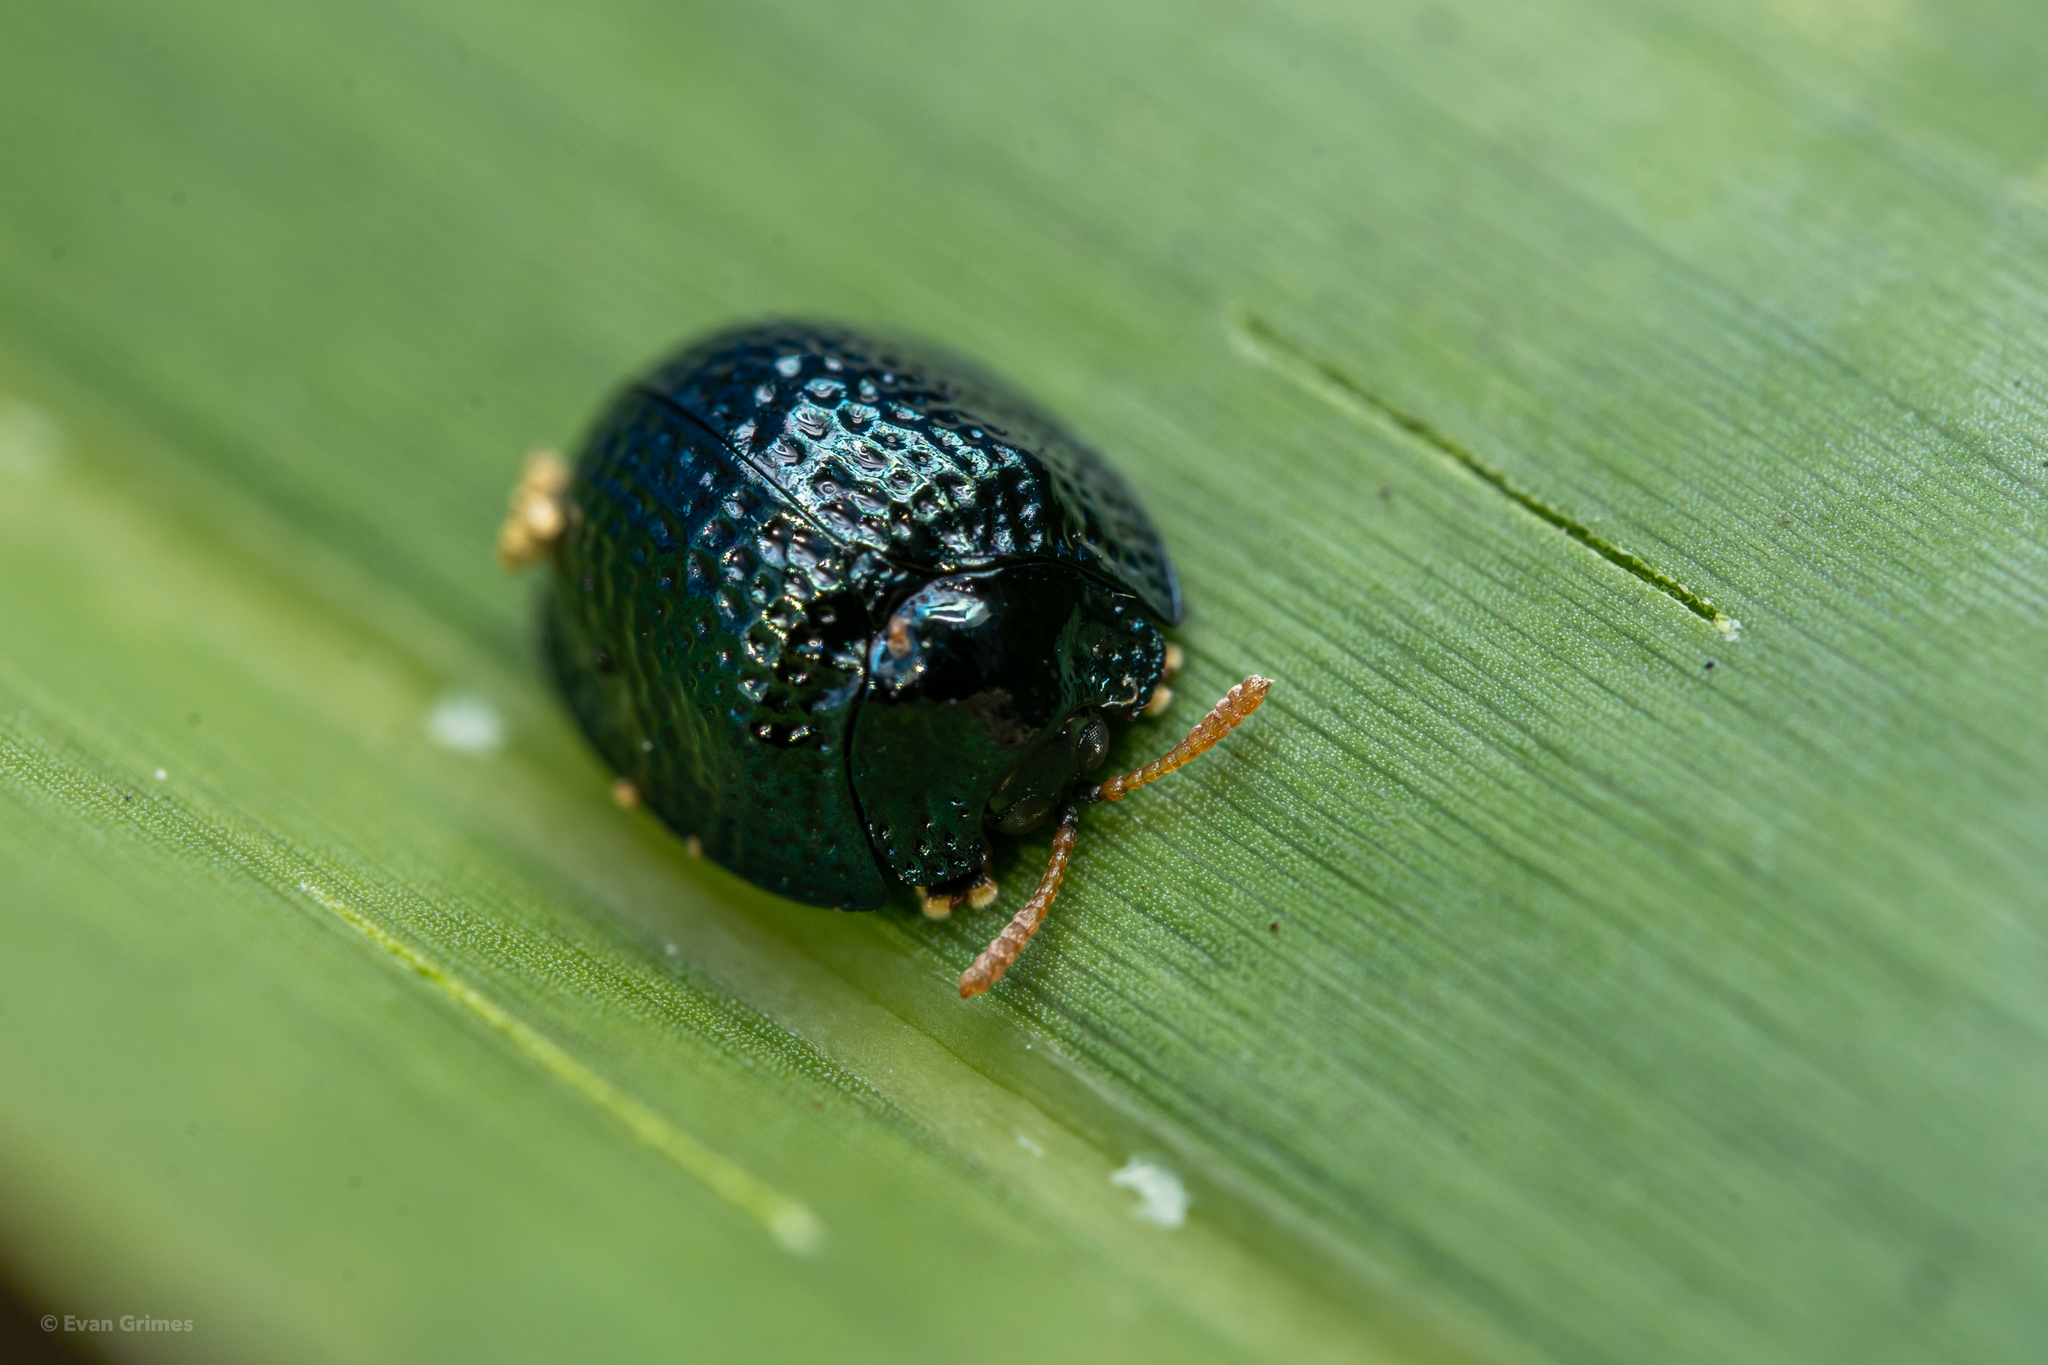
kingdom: Animalia
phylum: Arthropoda
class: Insecta
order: Coleoptera
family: Chrysomelidae
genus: Hemisphaerota
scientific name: Hemisphaerota cyanea
